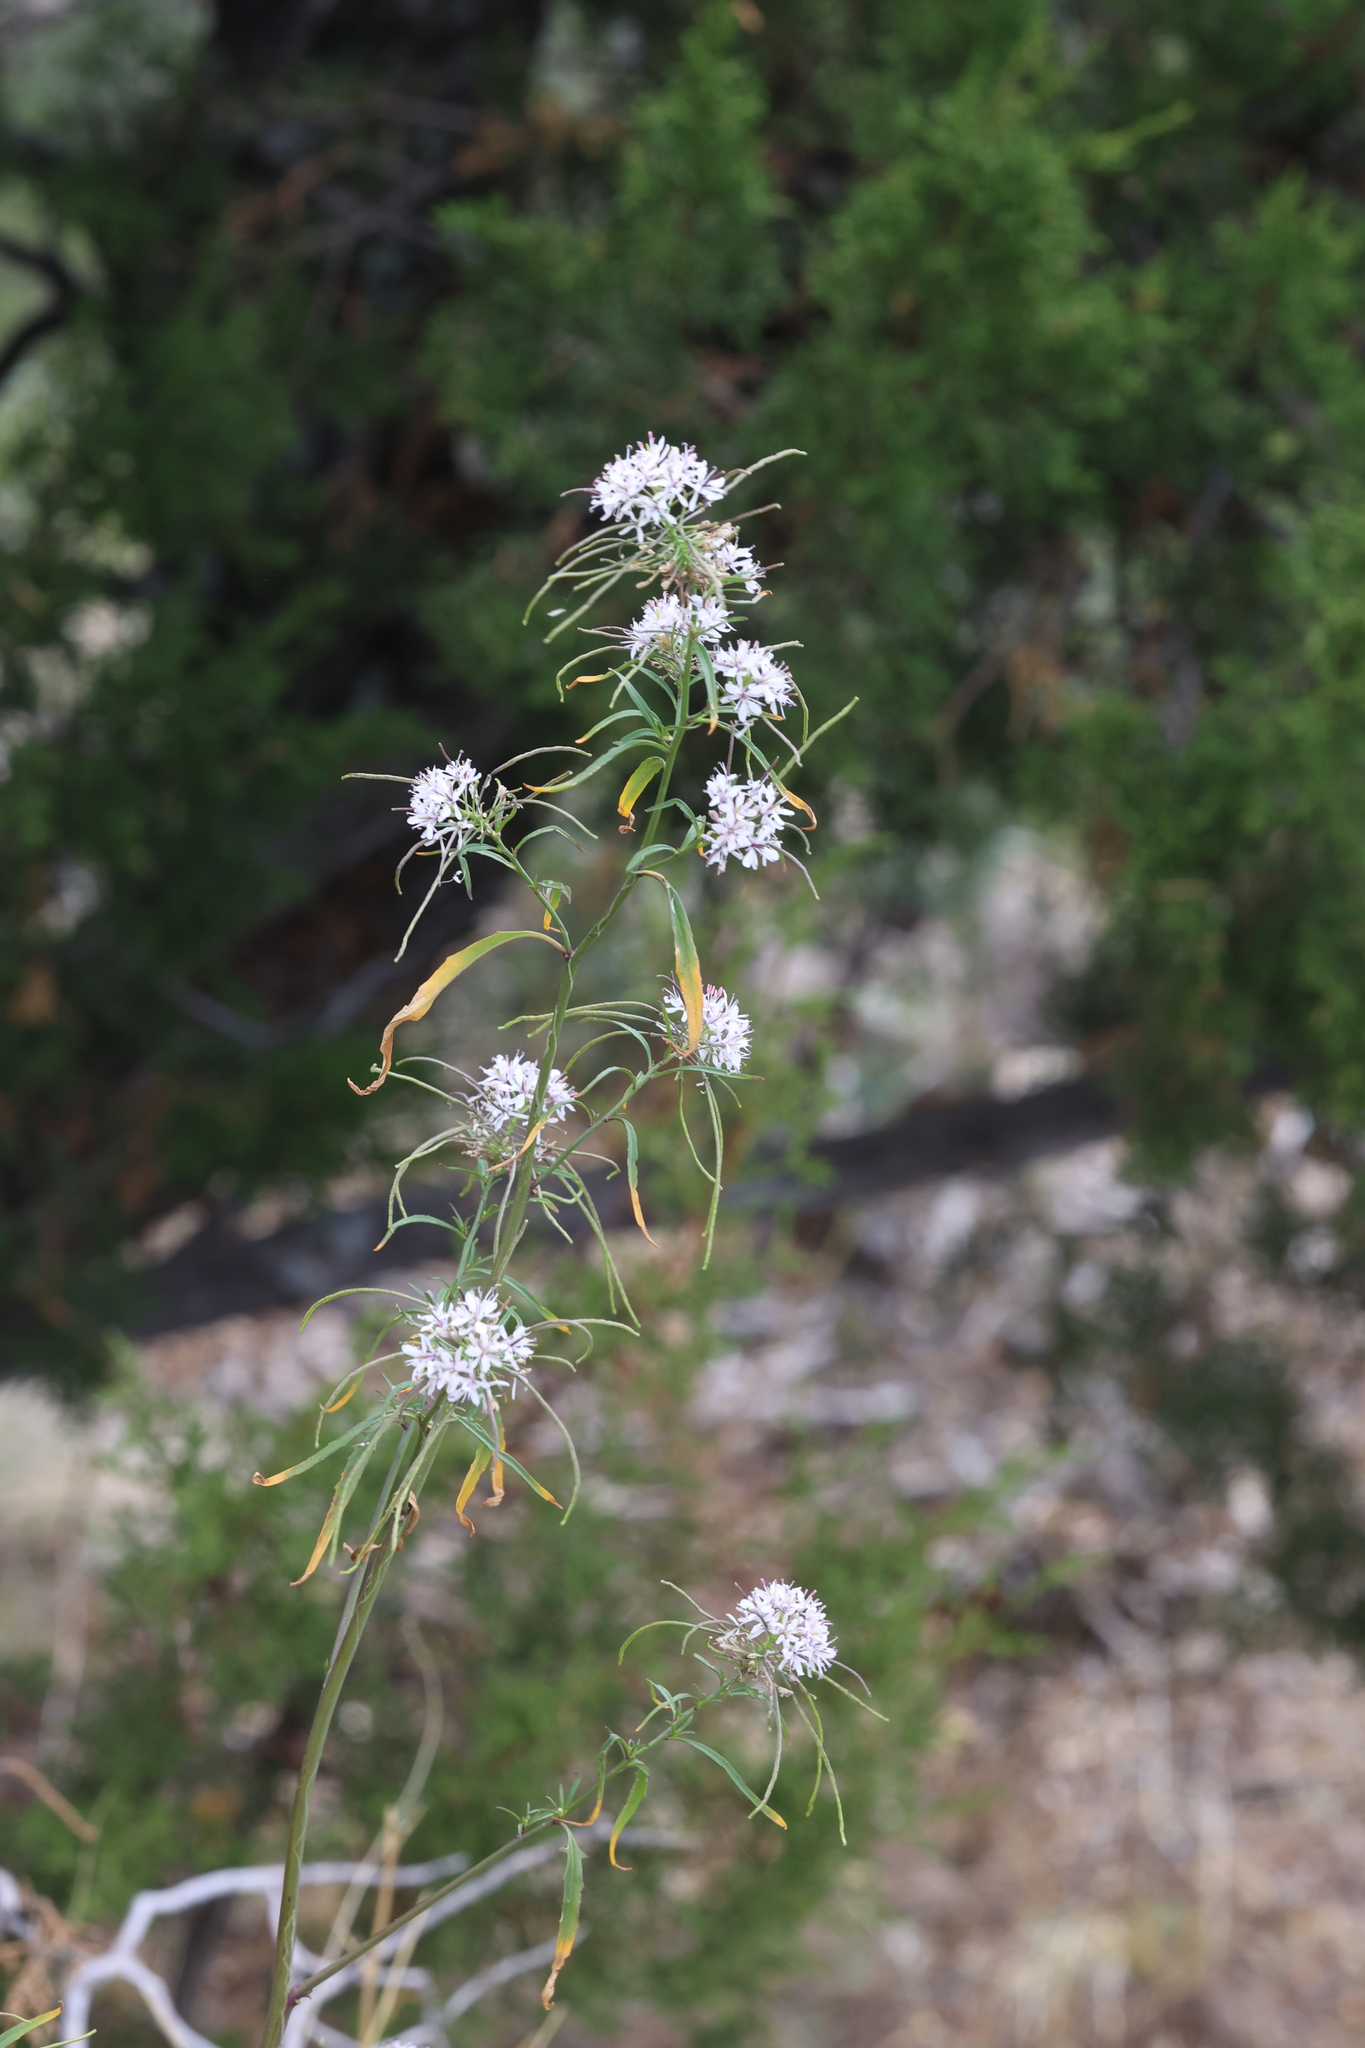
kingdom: Plantae
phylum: Tracheophyta
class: Magnoliopsida
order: Brassicales
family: Brassicaceae
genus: Thelypodium
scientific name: Thelypodium wrightii
